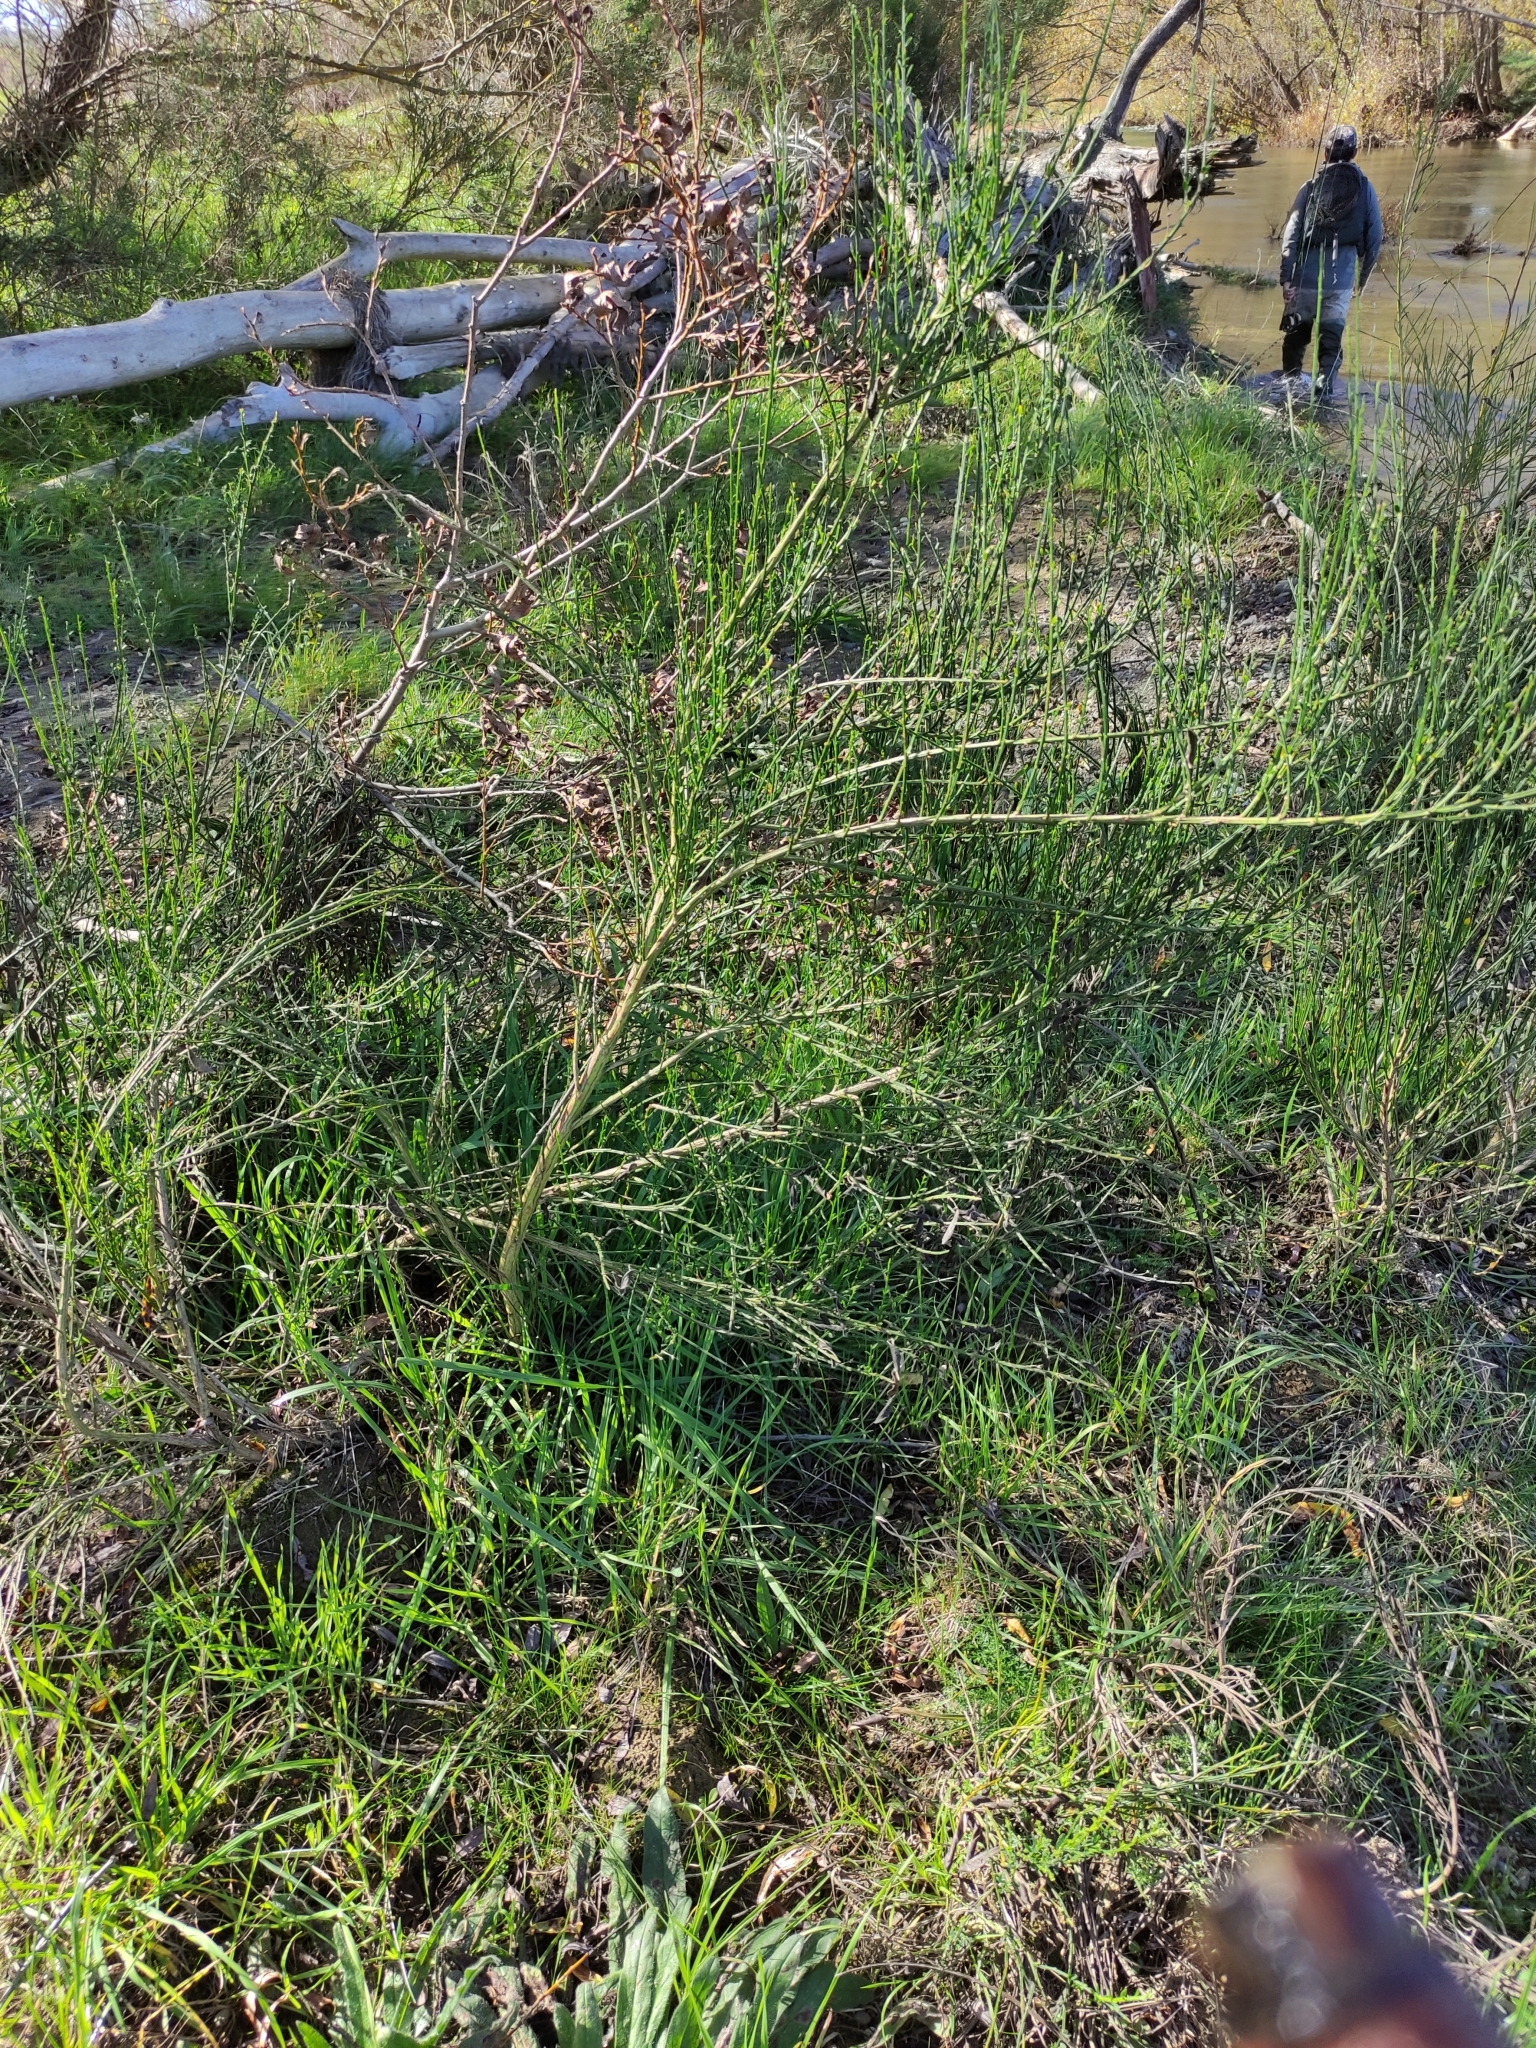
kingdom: Plantae
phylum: Tracheophyta
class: Magnoliopsida
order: Fabales
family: Fabaceae
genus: Cytisus
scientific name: Cytisus scoparius
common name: Scotch broom
